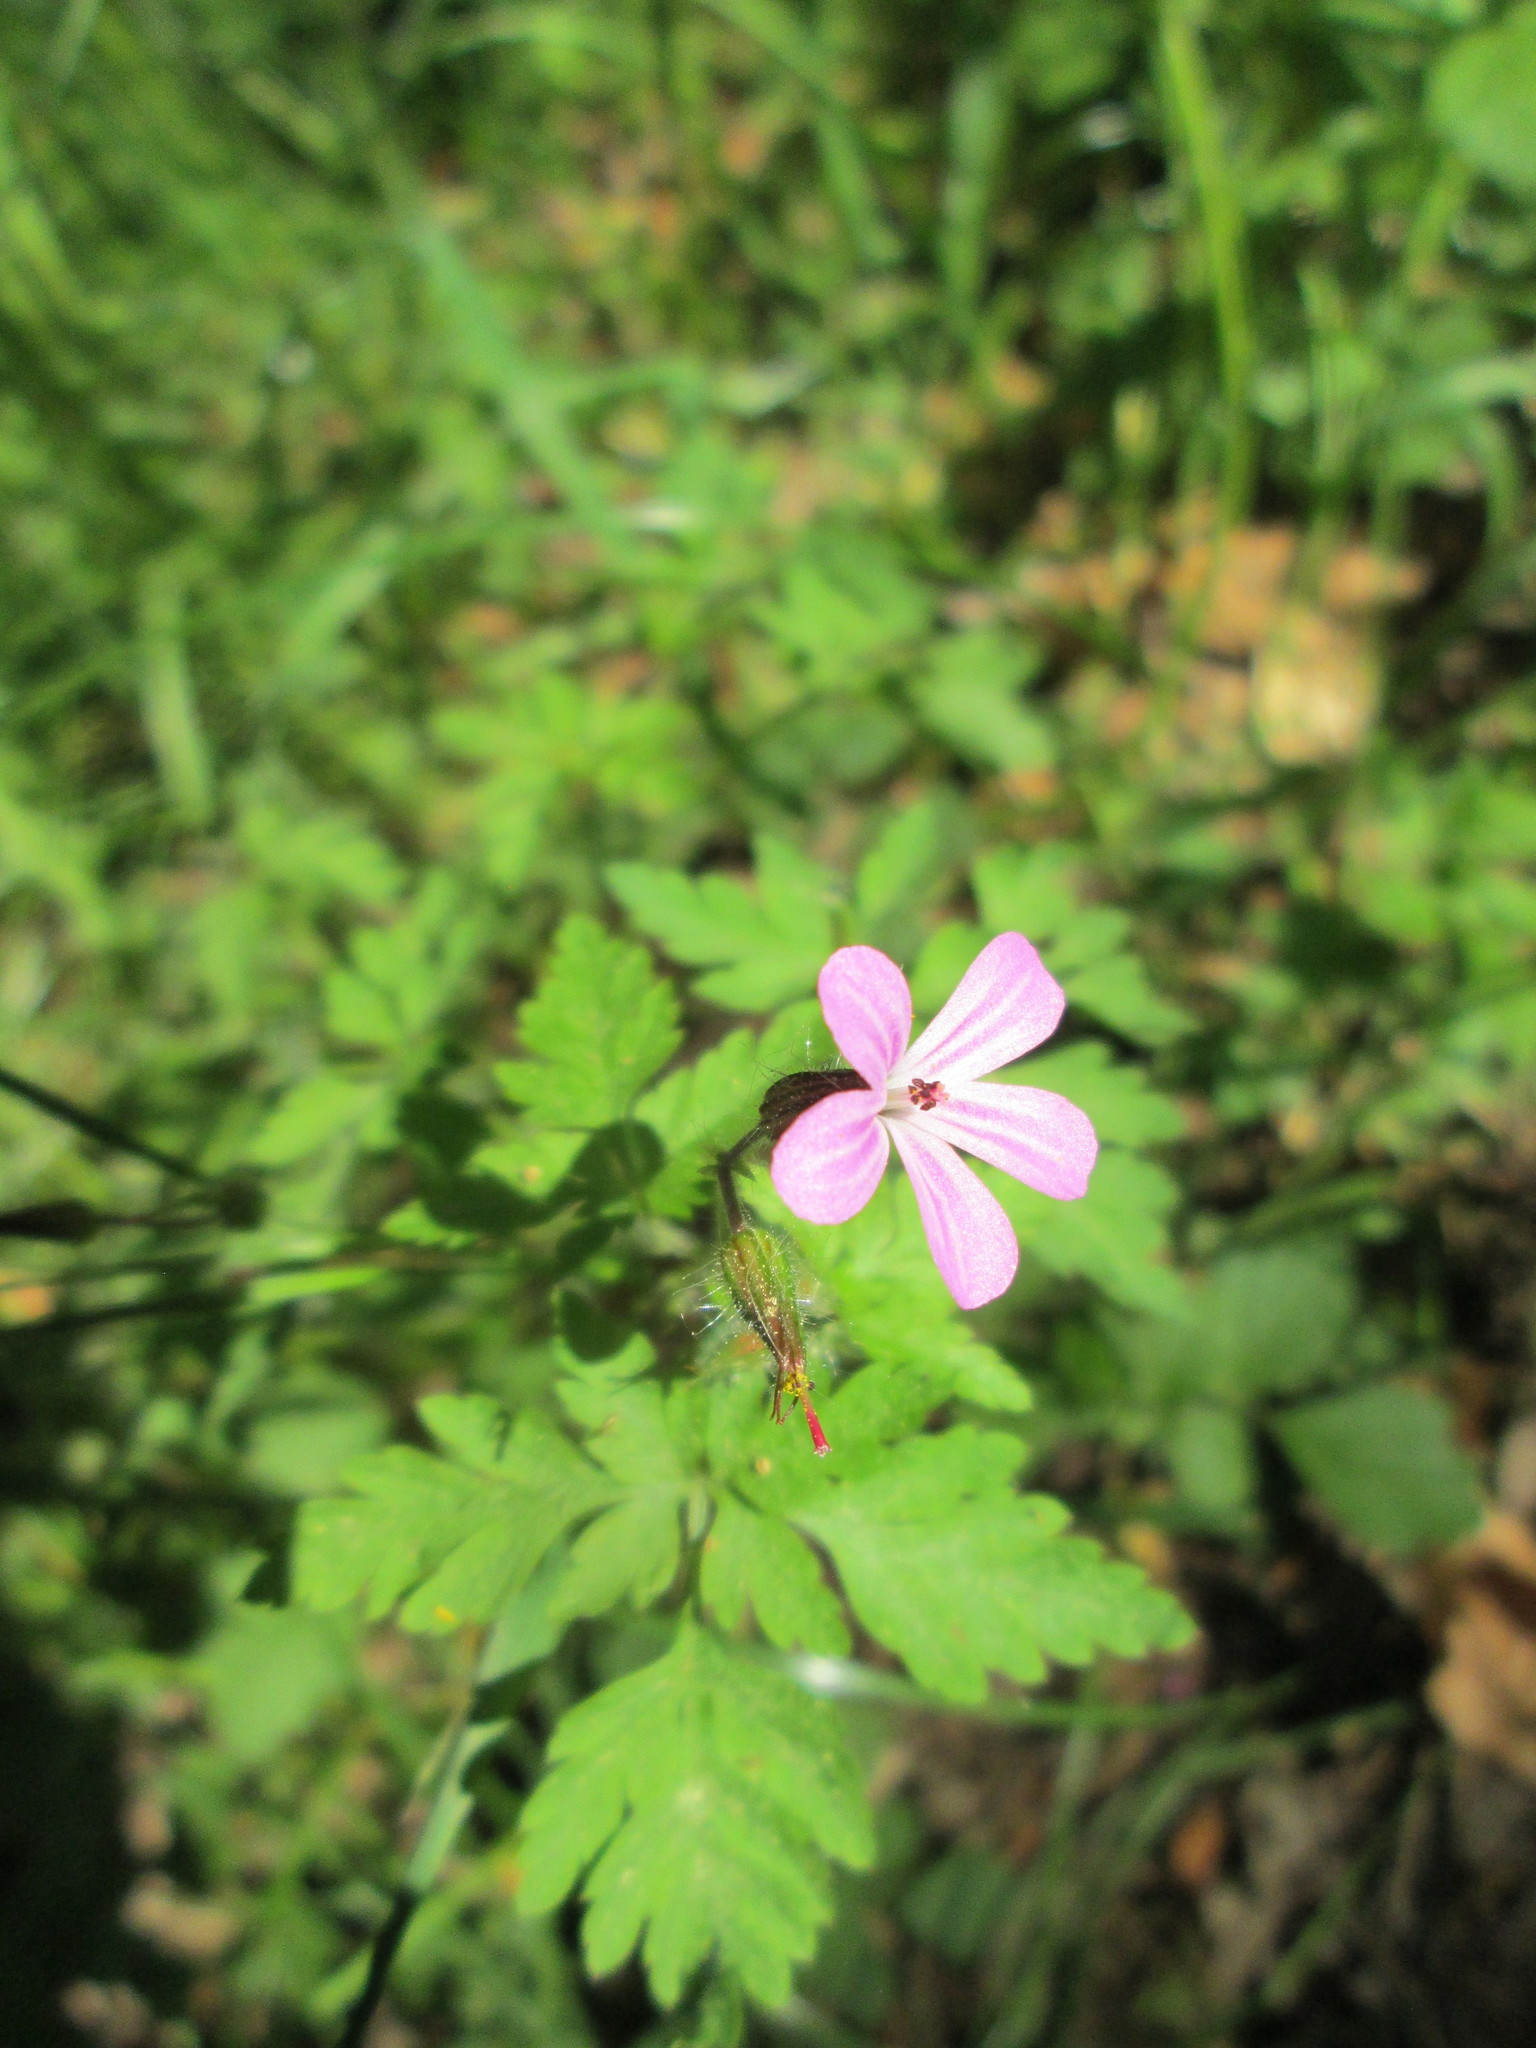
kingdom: Plantae
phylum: Tracheophyta
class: Magnoliopsida
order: Geraniales
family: Geraniaceae
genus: Geranium
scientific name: Geranium robertianum
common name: Herb-robert
